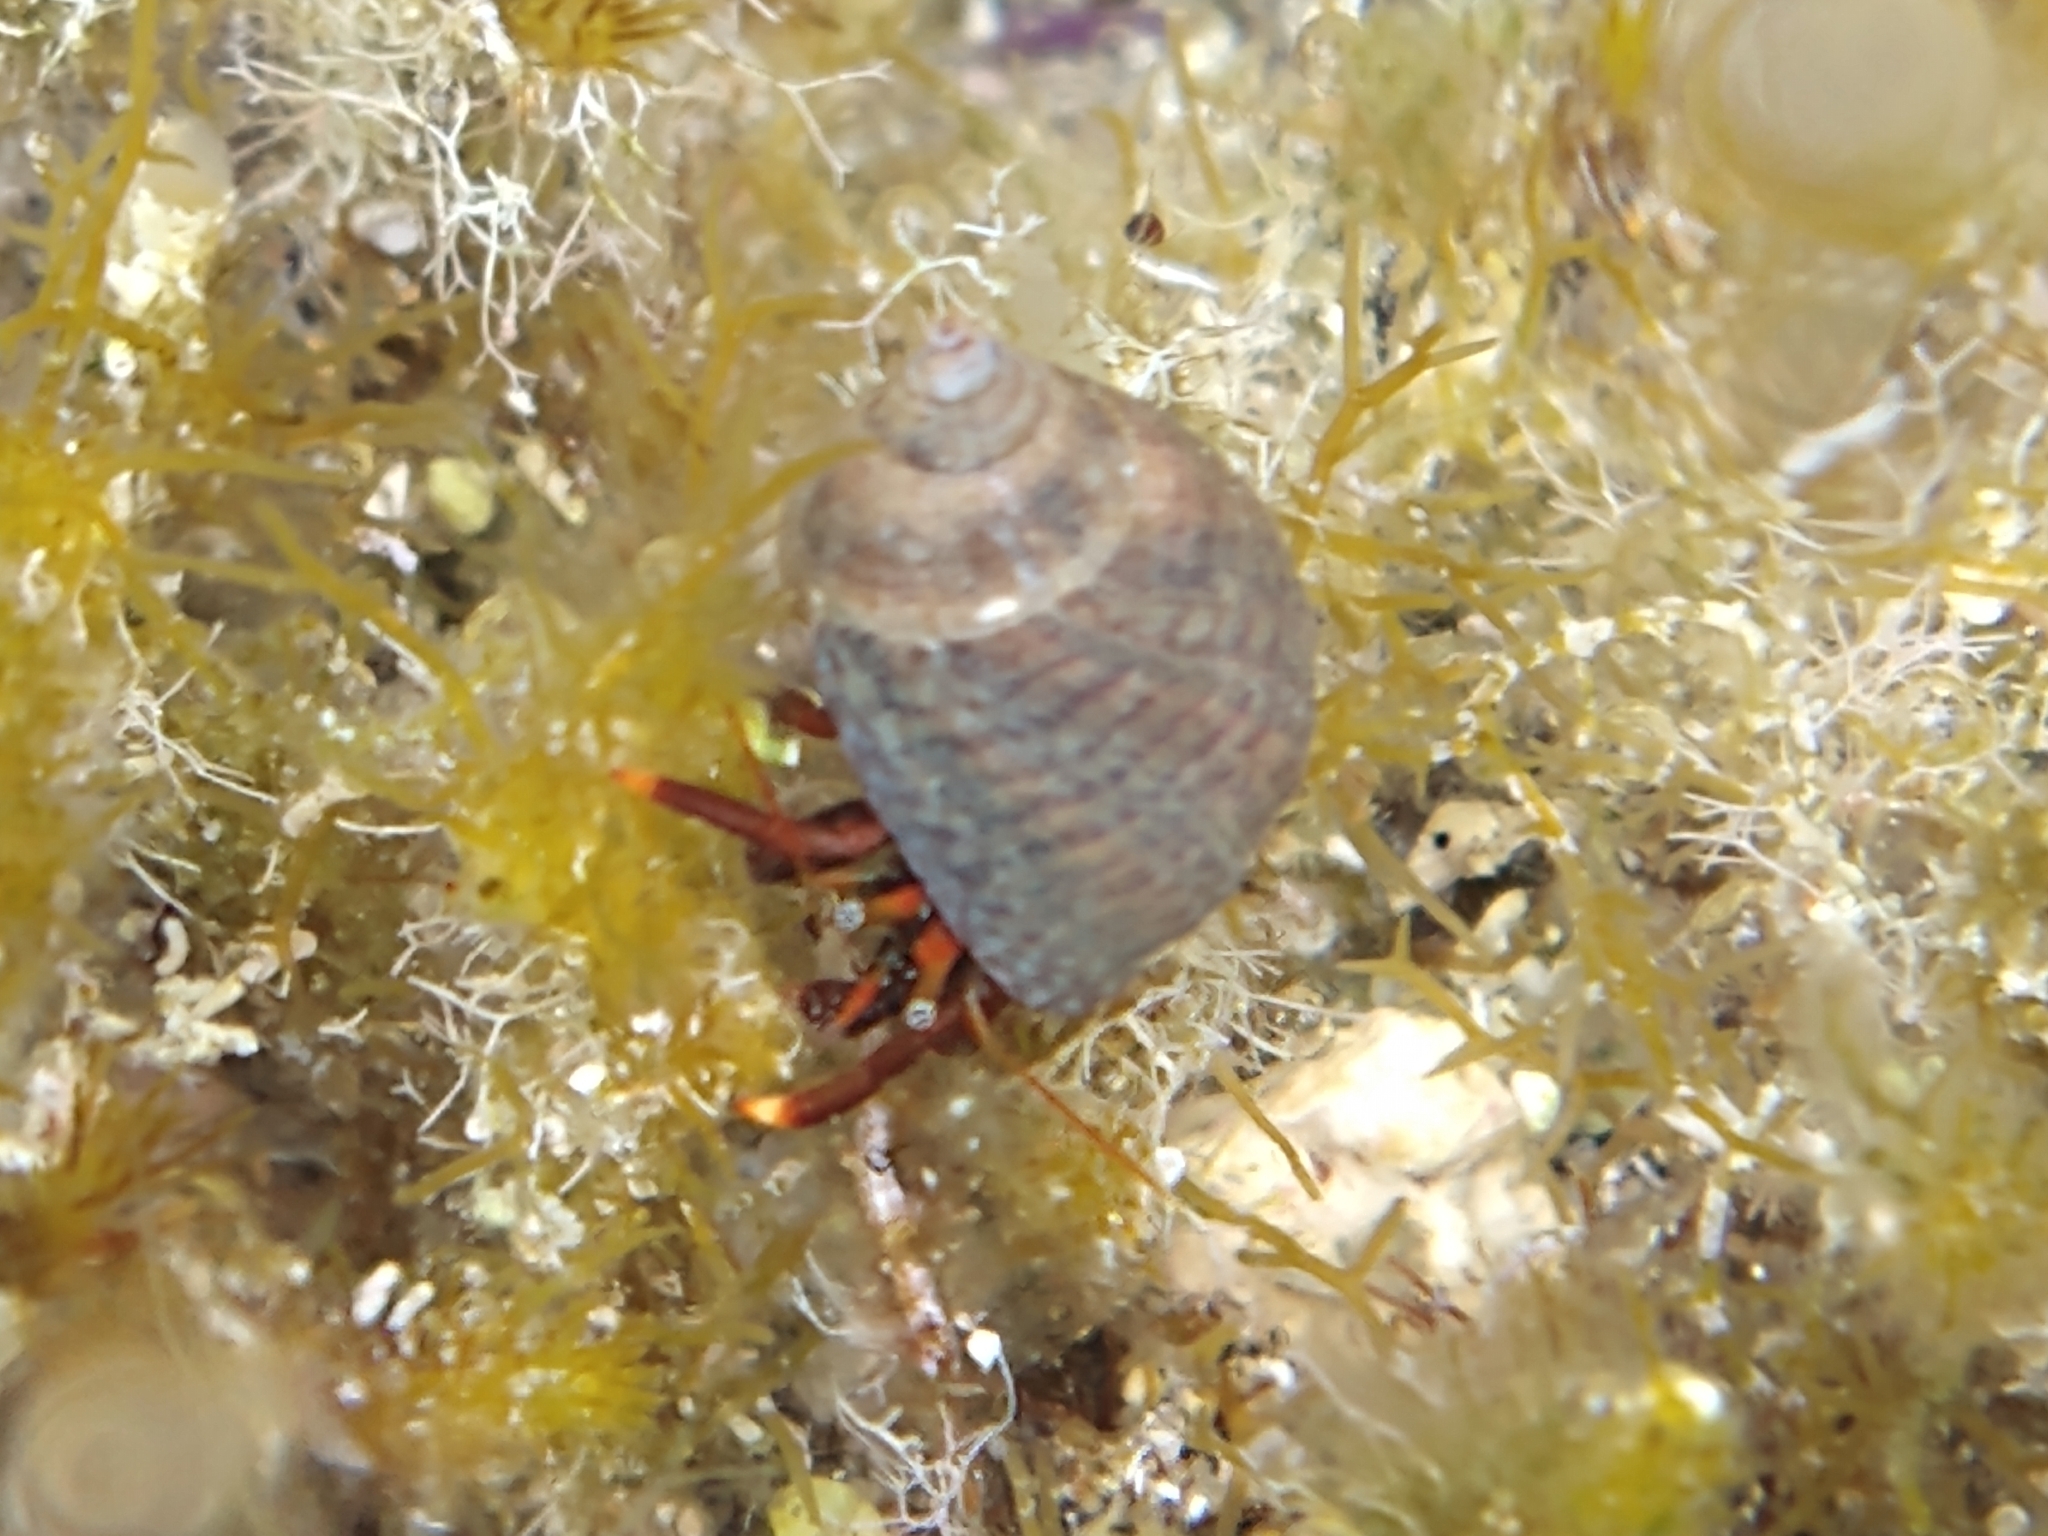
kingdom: Animalia
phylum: Arthropoda
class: Malacostraca
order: Decapoda
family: Diogenidae
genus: Clibanarius
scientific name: Clibanarius aequabilis
